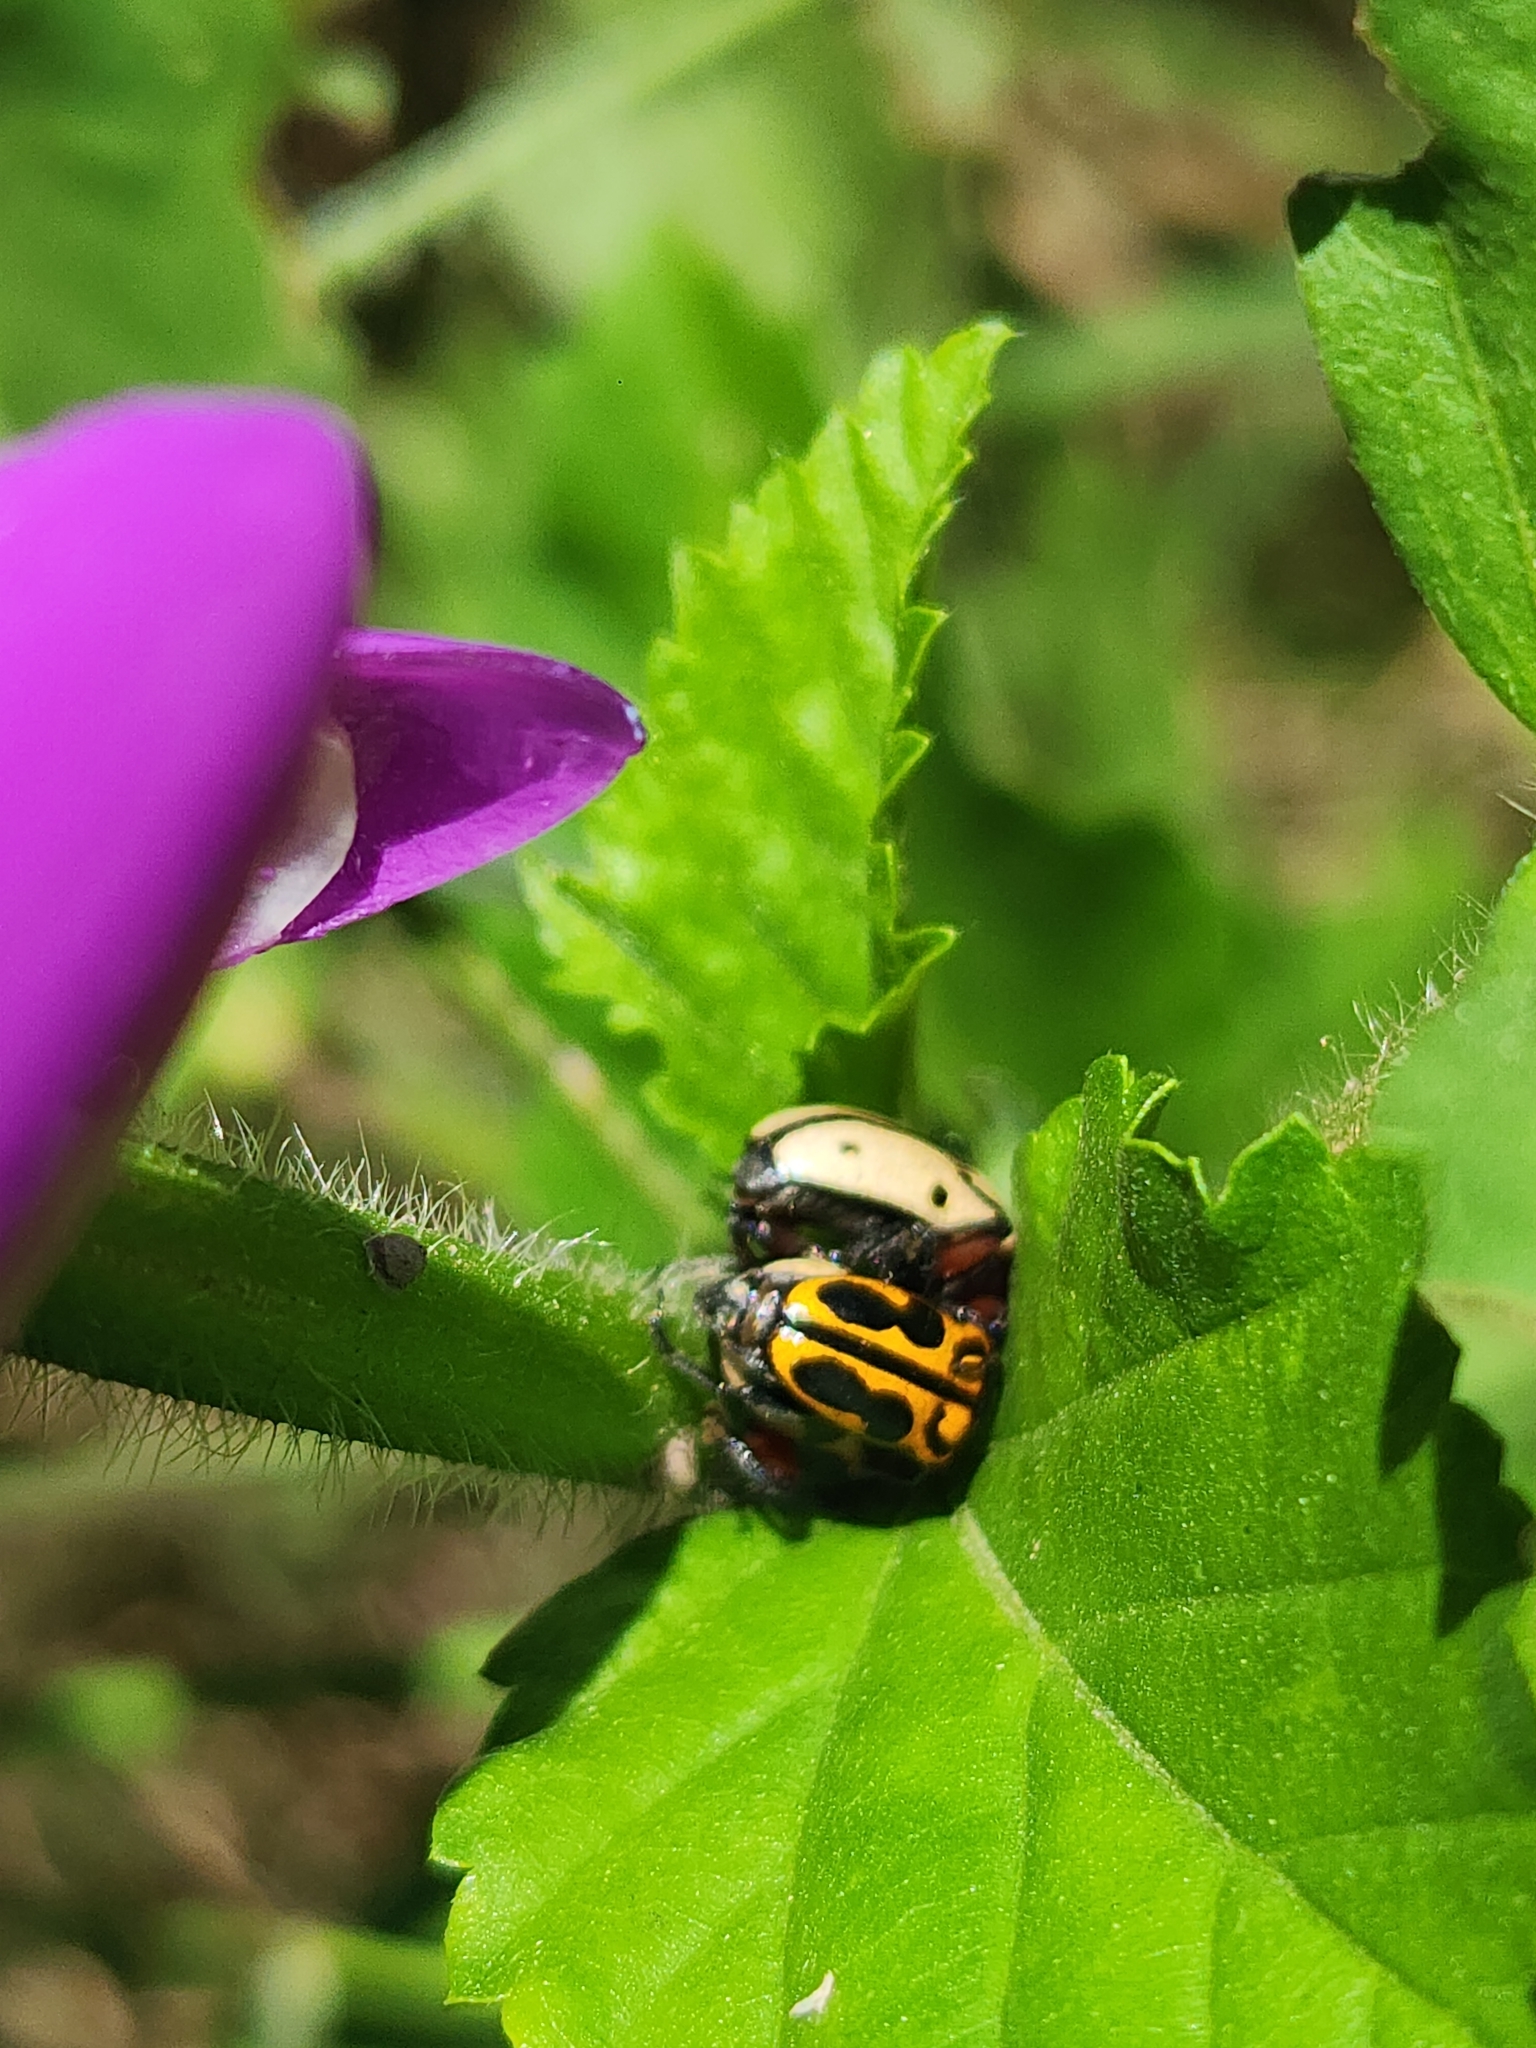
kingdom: Animalia
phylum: Arthropoda
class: Insecta
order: Coleoptera
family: Chrysomelidae
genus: Atalasis
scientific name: Atalasis
